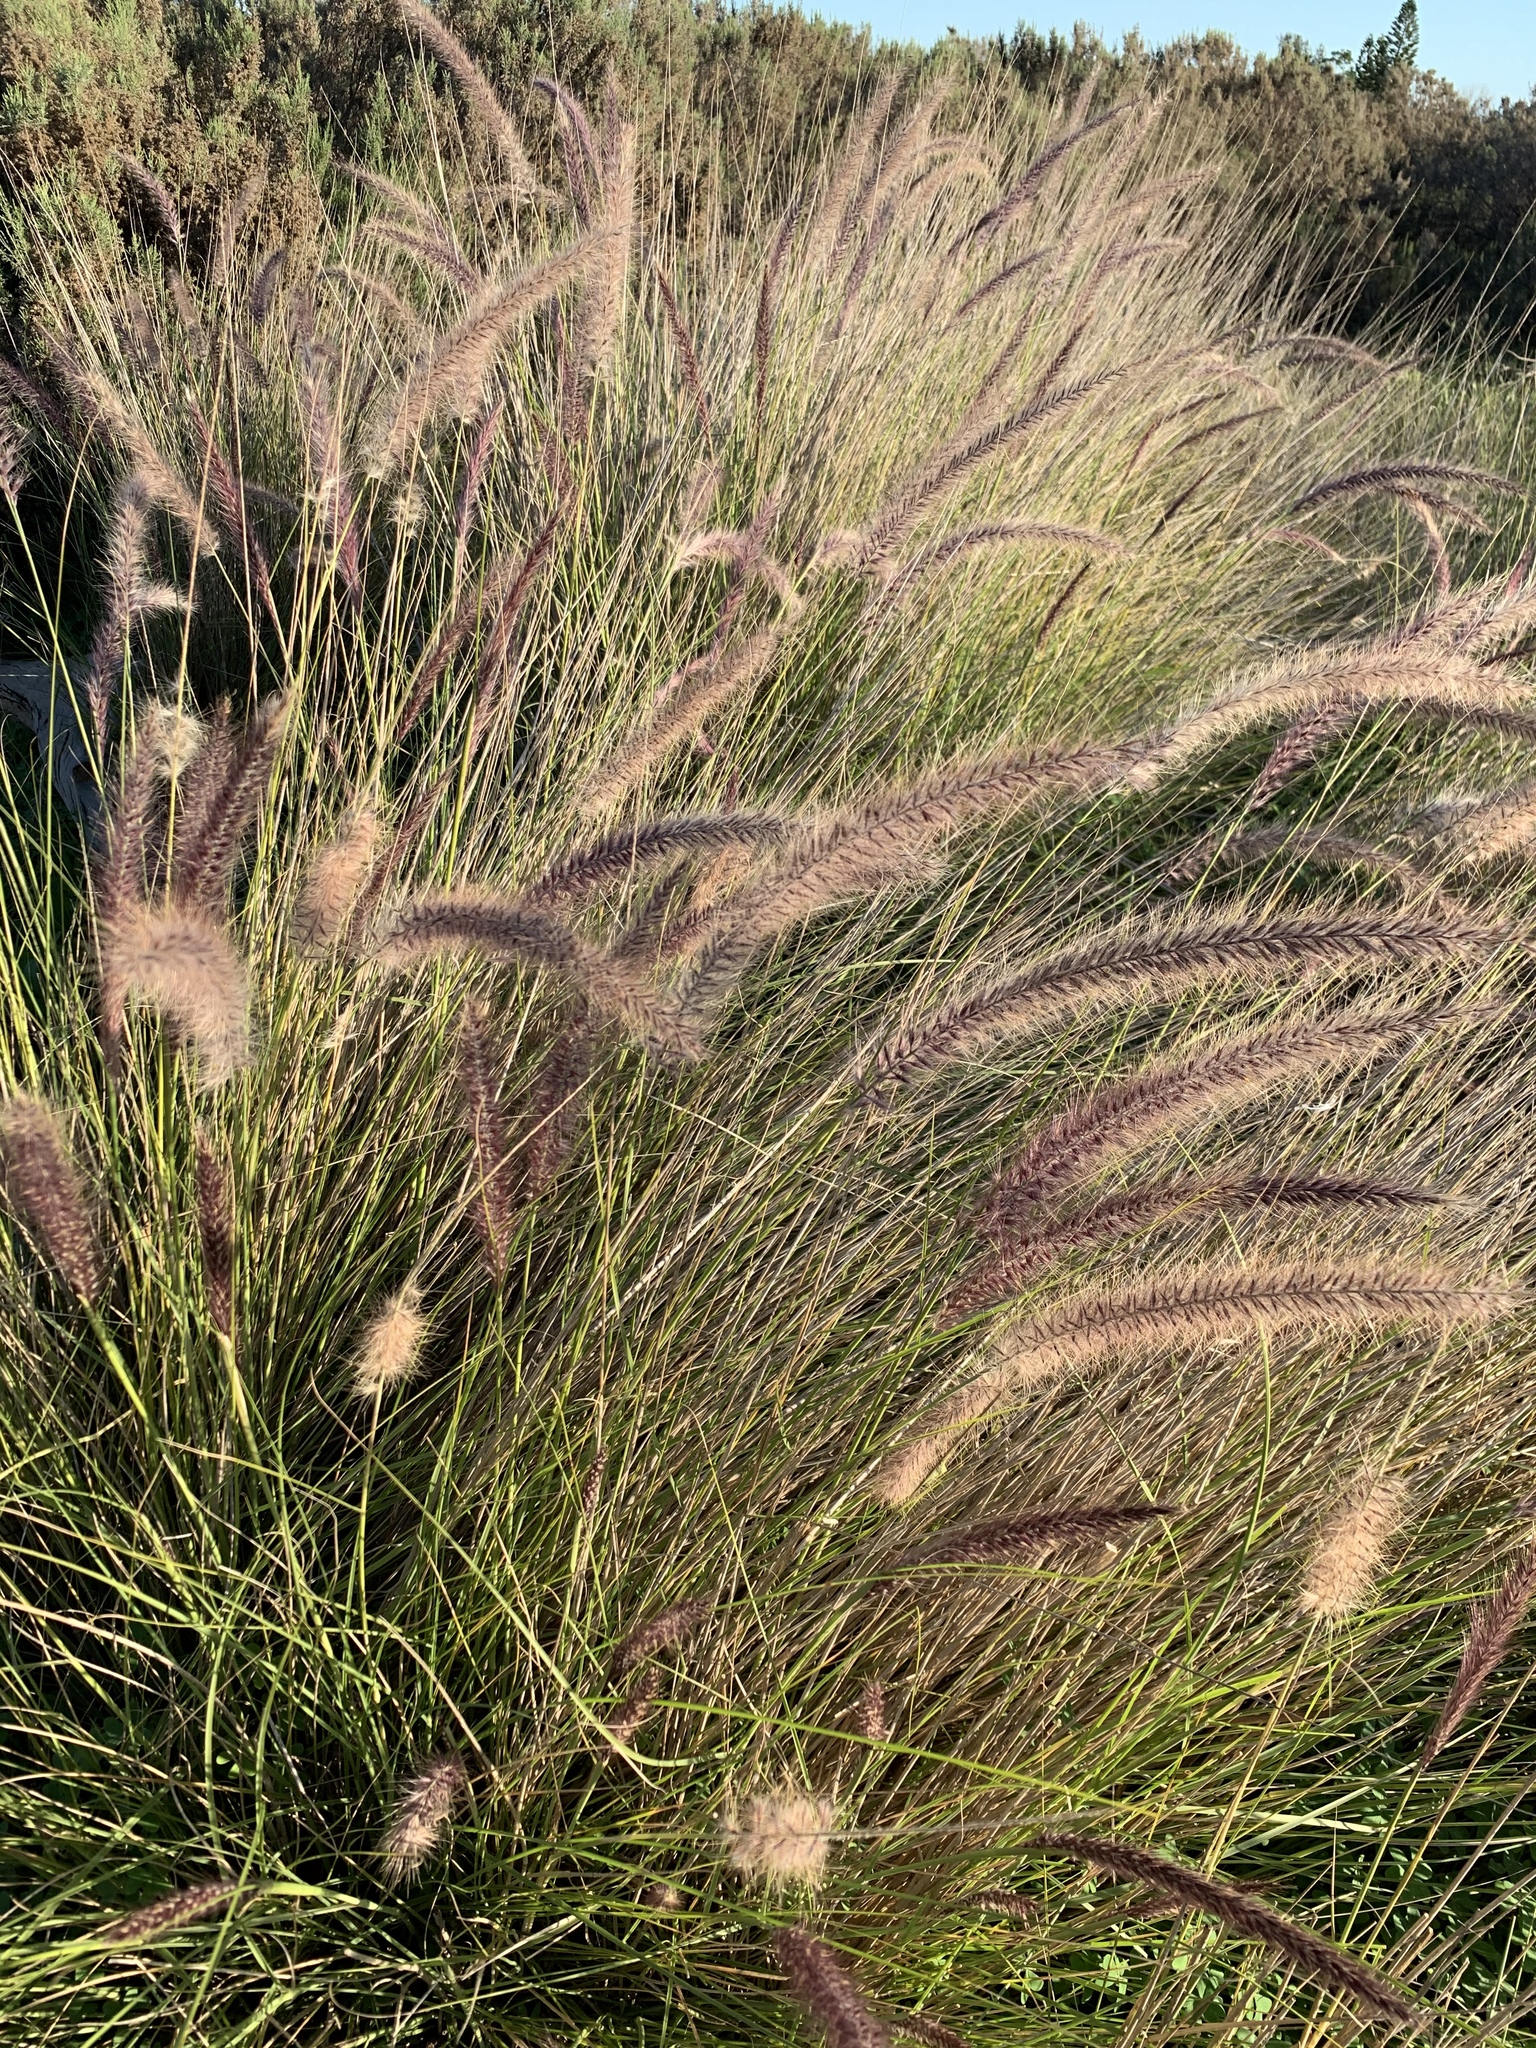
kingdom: Plantae
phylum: Tracheophyta
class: Liliopsida
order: Poales
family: Poaceae
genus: Cenchrus
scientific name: Cenchrus setaceus
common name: Crimson fountaingrass
